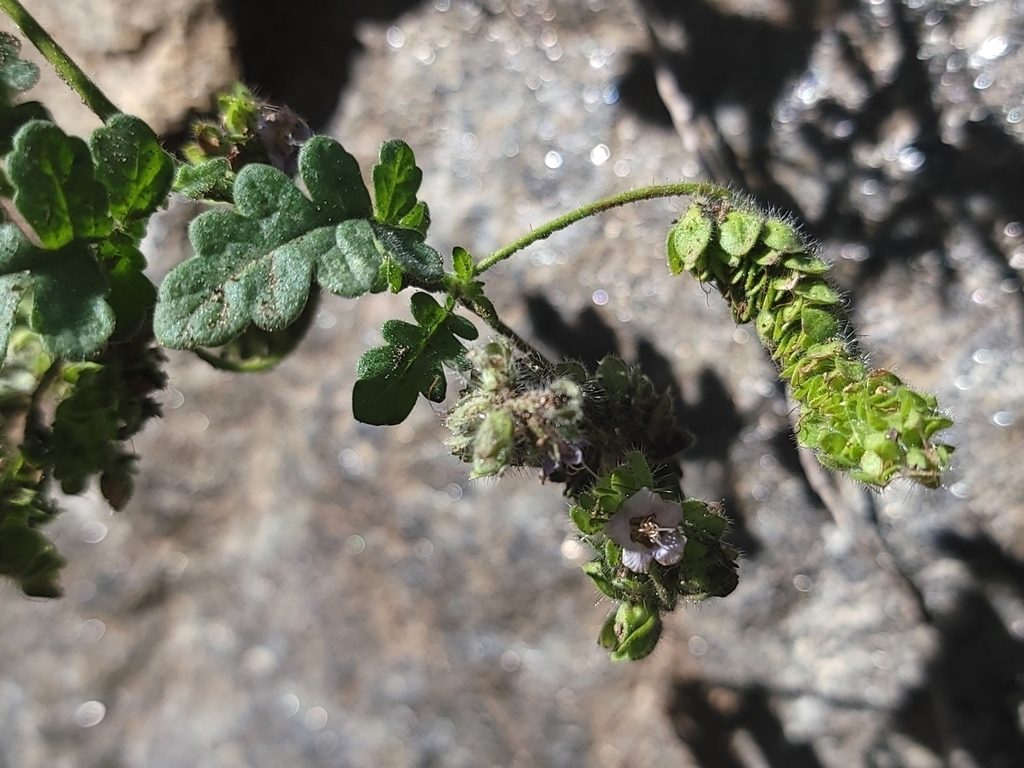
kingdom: Plantae
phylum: Tracheophyta
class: Magnoliopsida
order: Boraginales
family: Hydrophyllaceae
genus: Phacelia
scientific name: Phacelia ramosissima
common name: Branching phacelia
